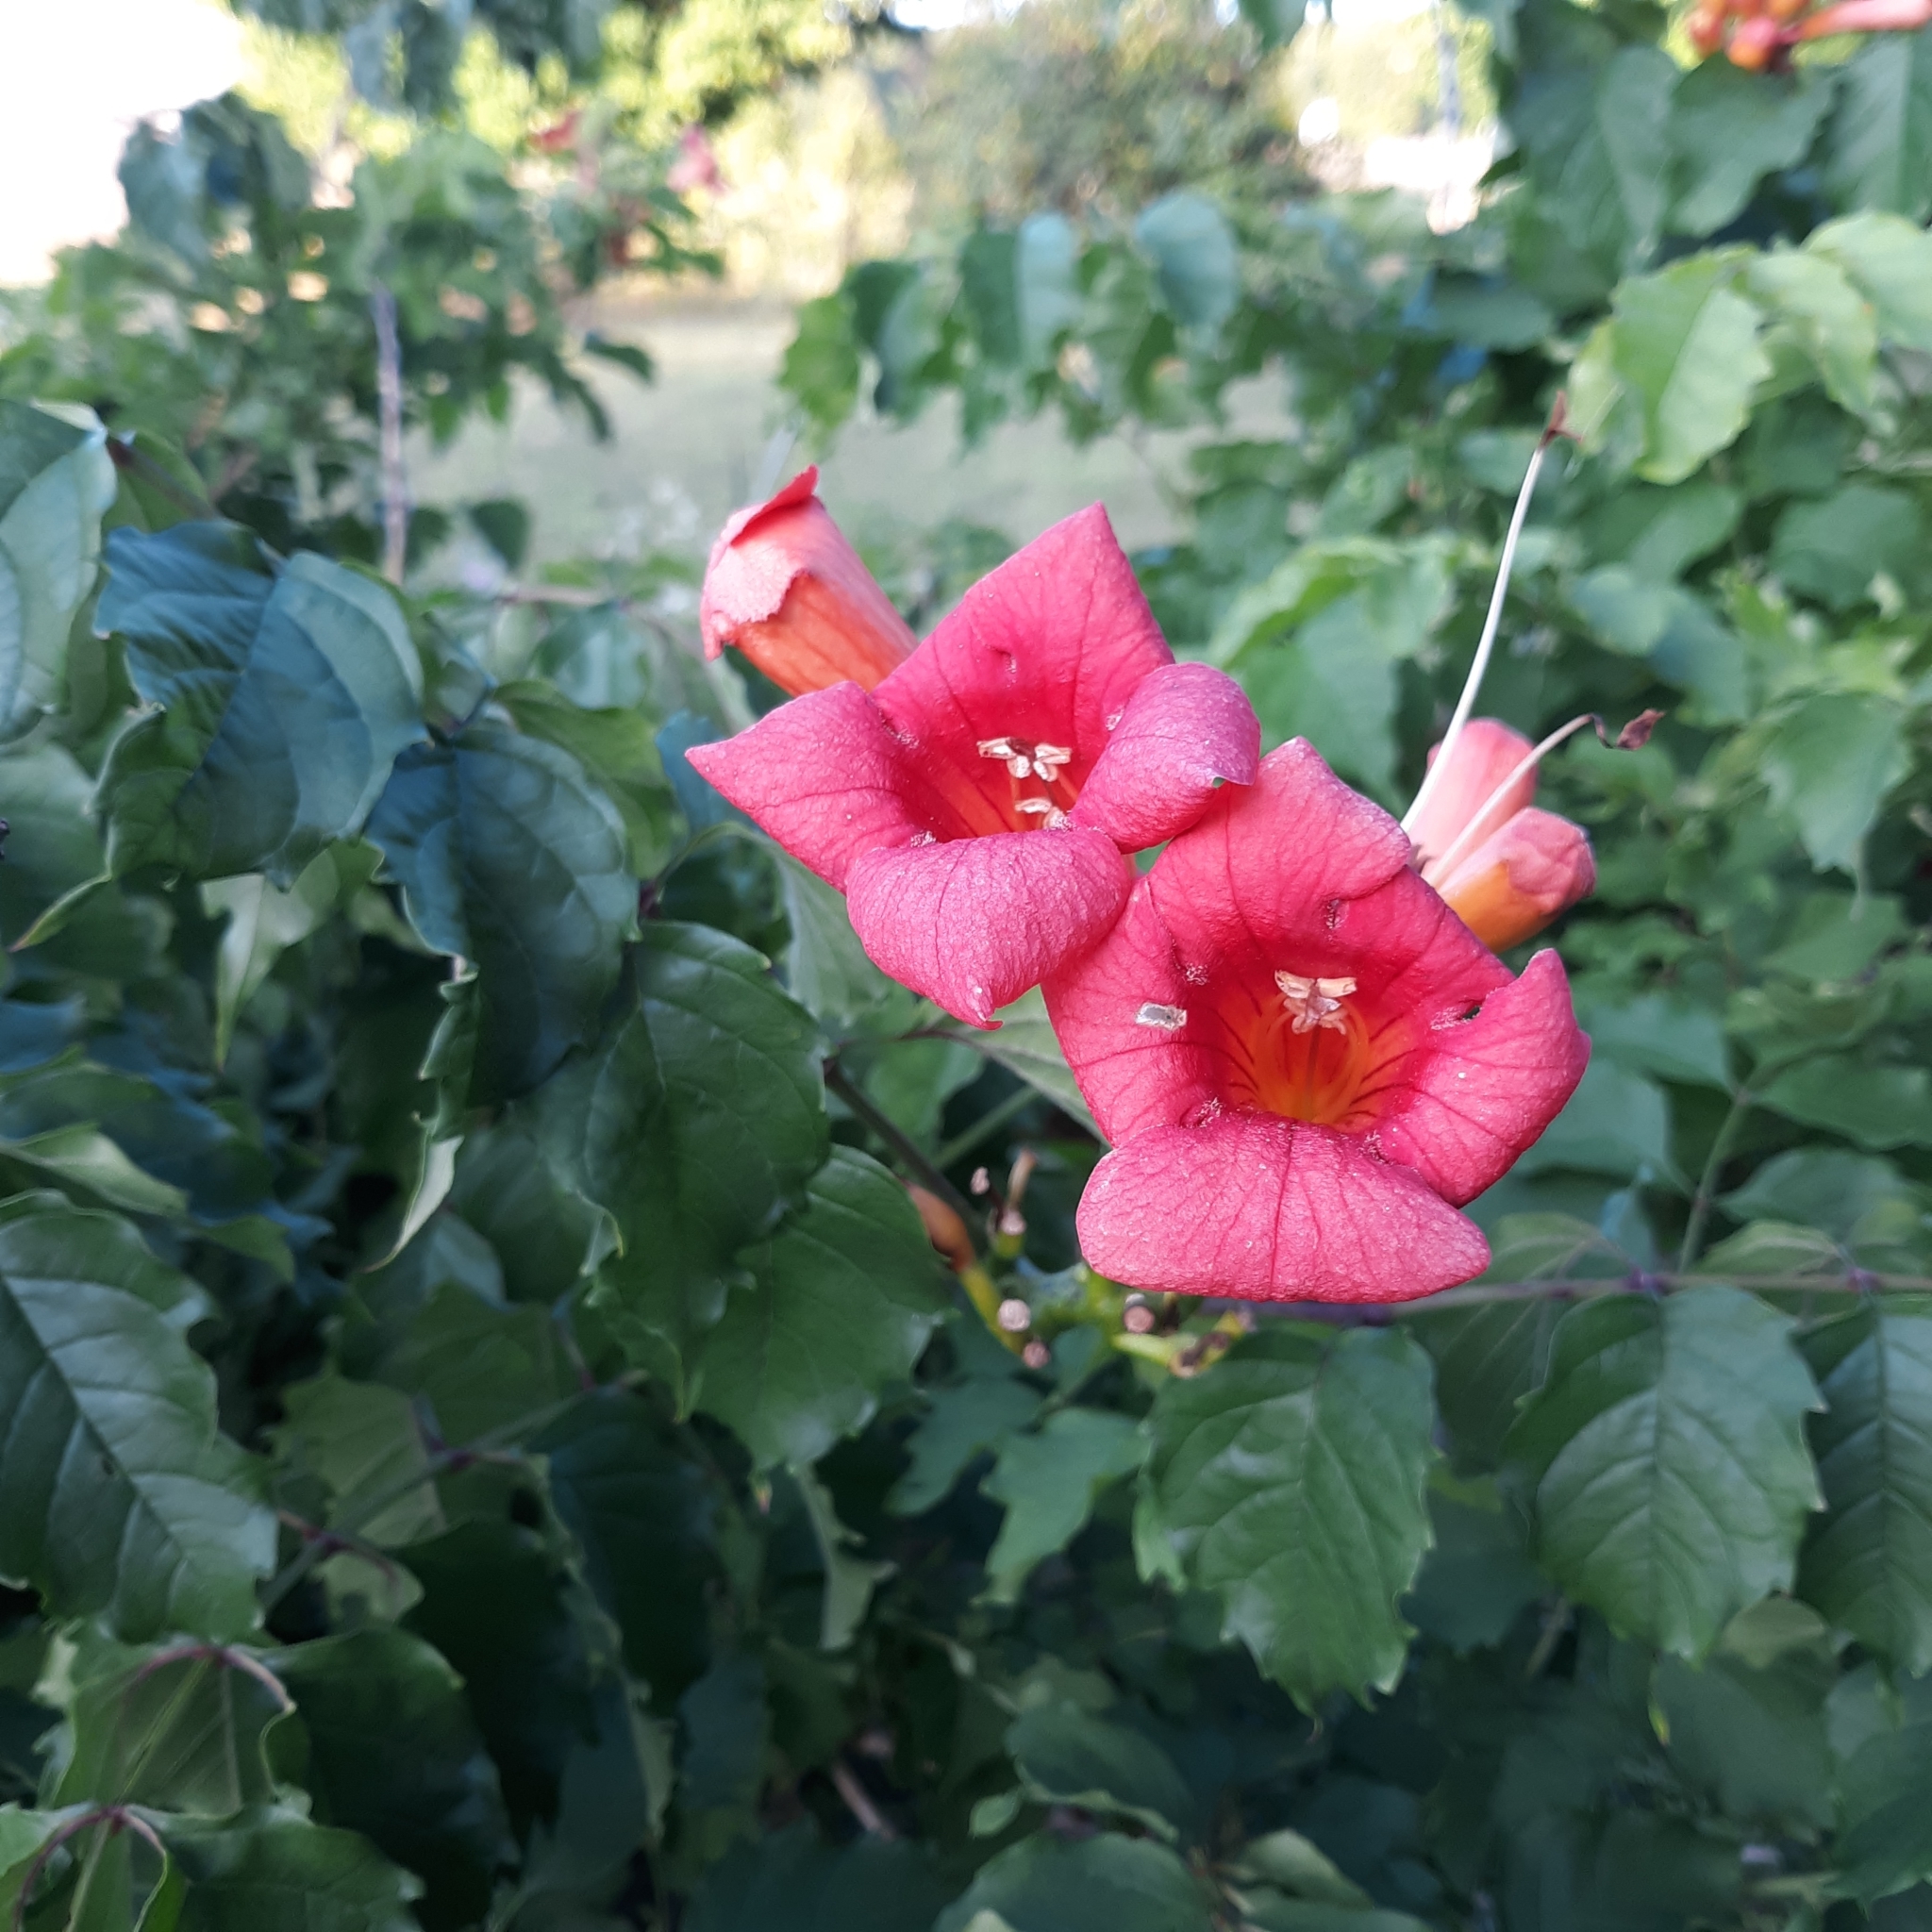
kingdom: Plantae
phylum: Tracheophyta
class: Magnoliopsida
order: Lamiales
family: Bignoniaceae
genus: Campsis
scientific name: Campsis radicans
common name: Trumpet-creeper
